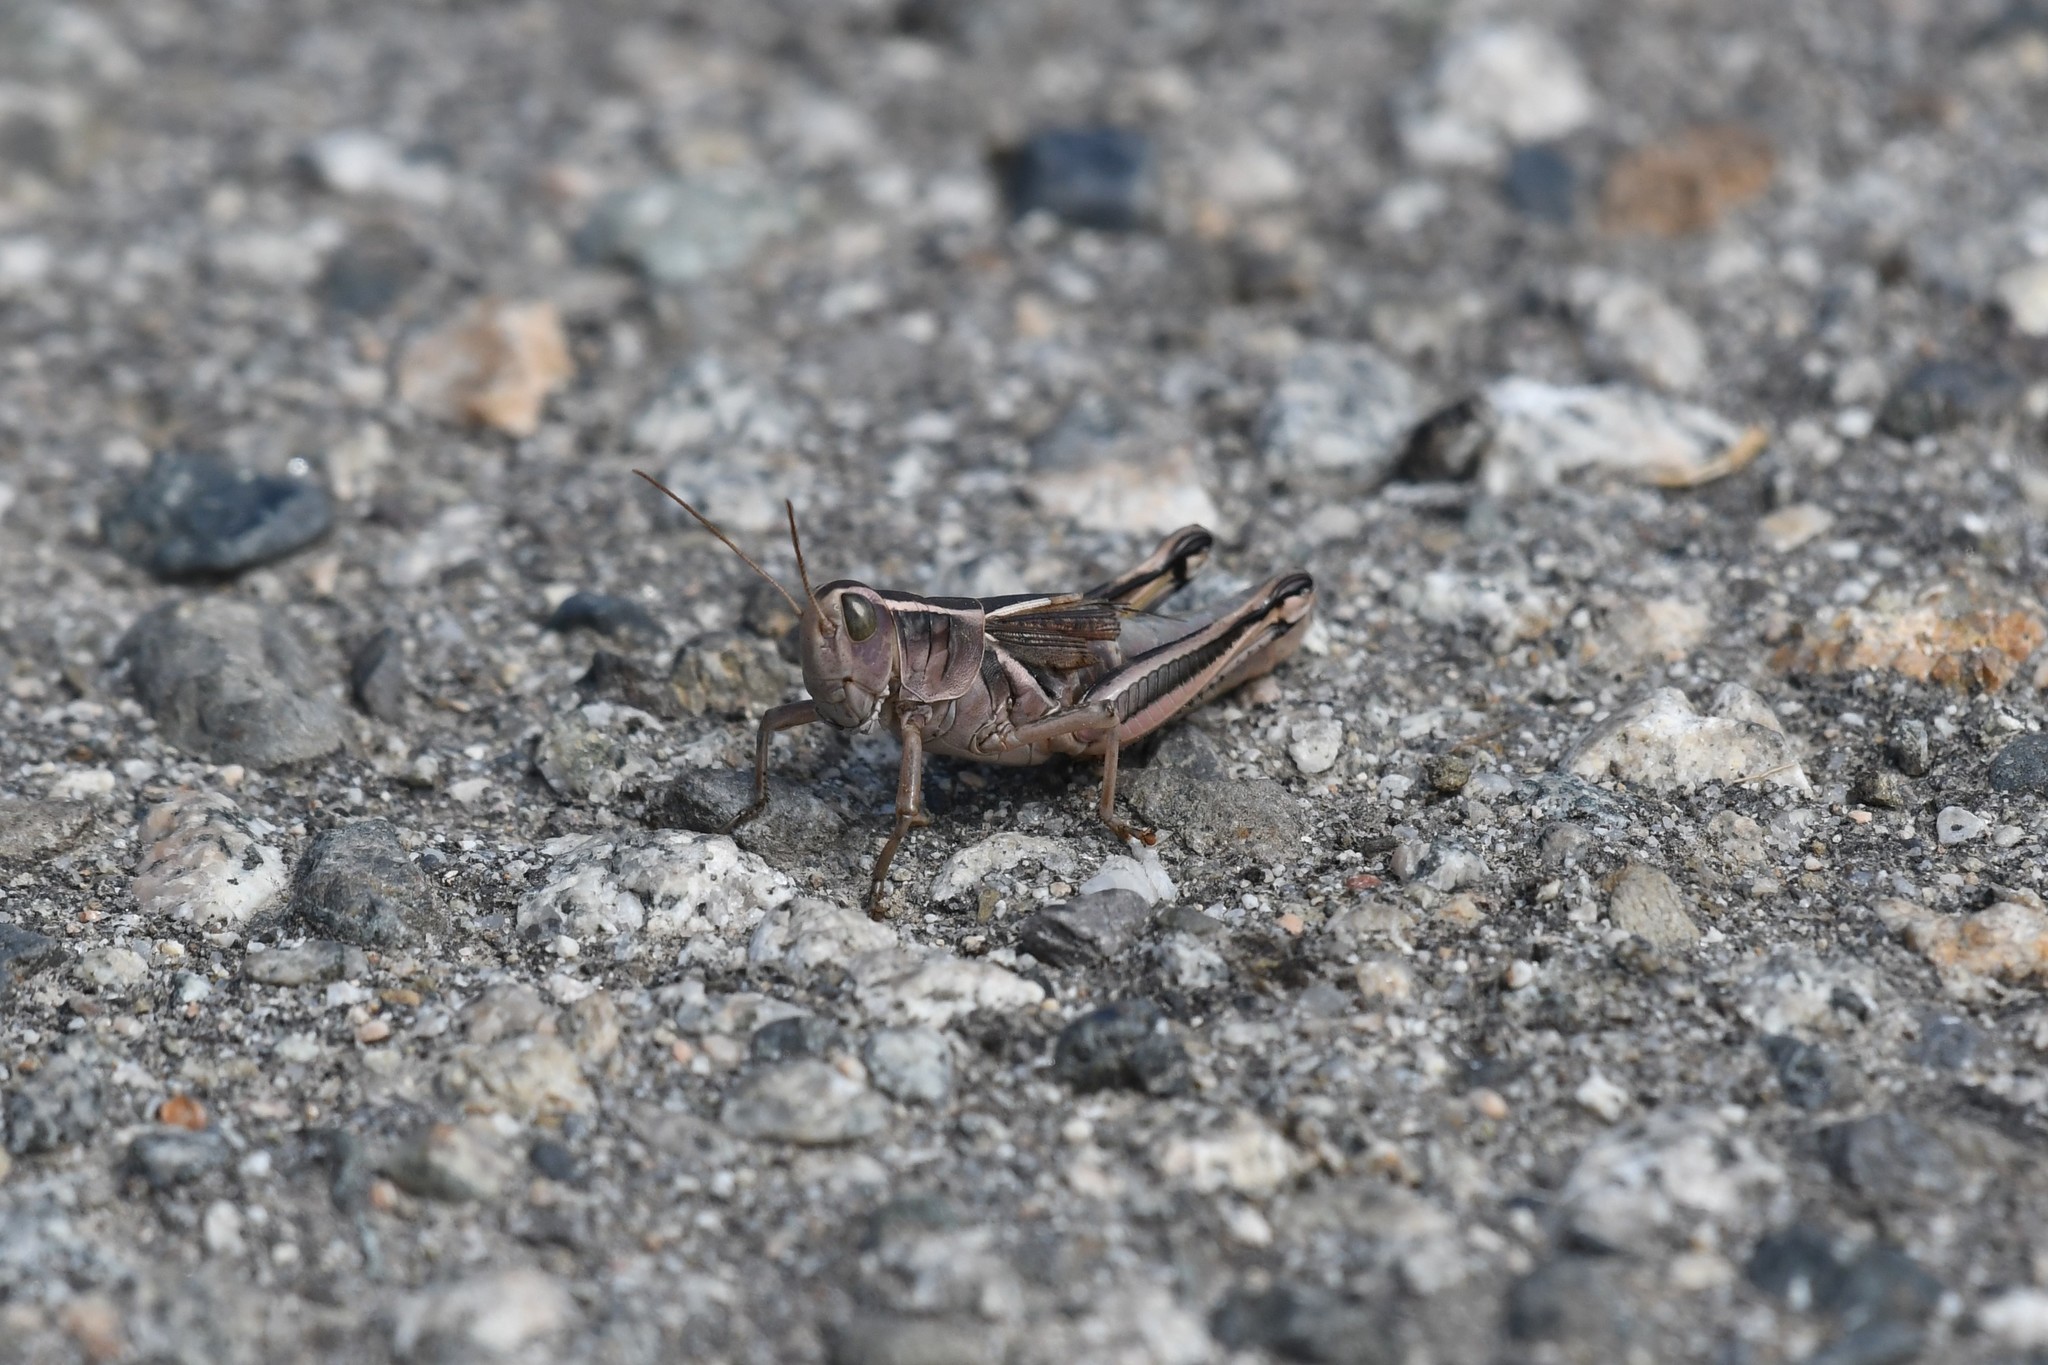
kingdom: Animalia
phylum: Arthropoda
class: Insecta
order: Orthoptera
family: Acrididae
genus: Melanoplus
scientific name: Melanoplus bivittatus
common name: Two-striped grasshopper
